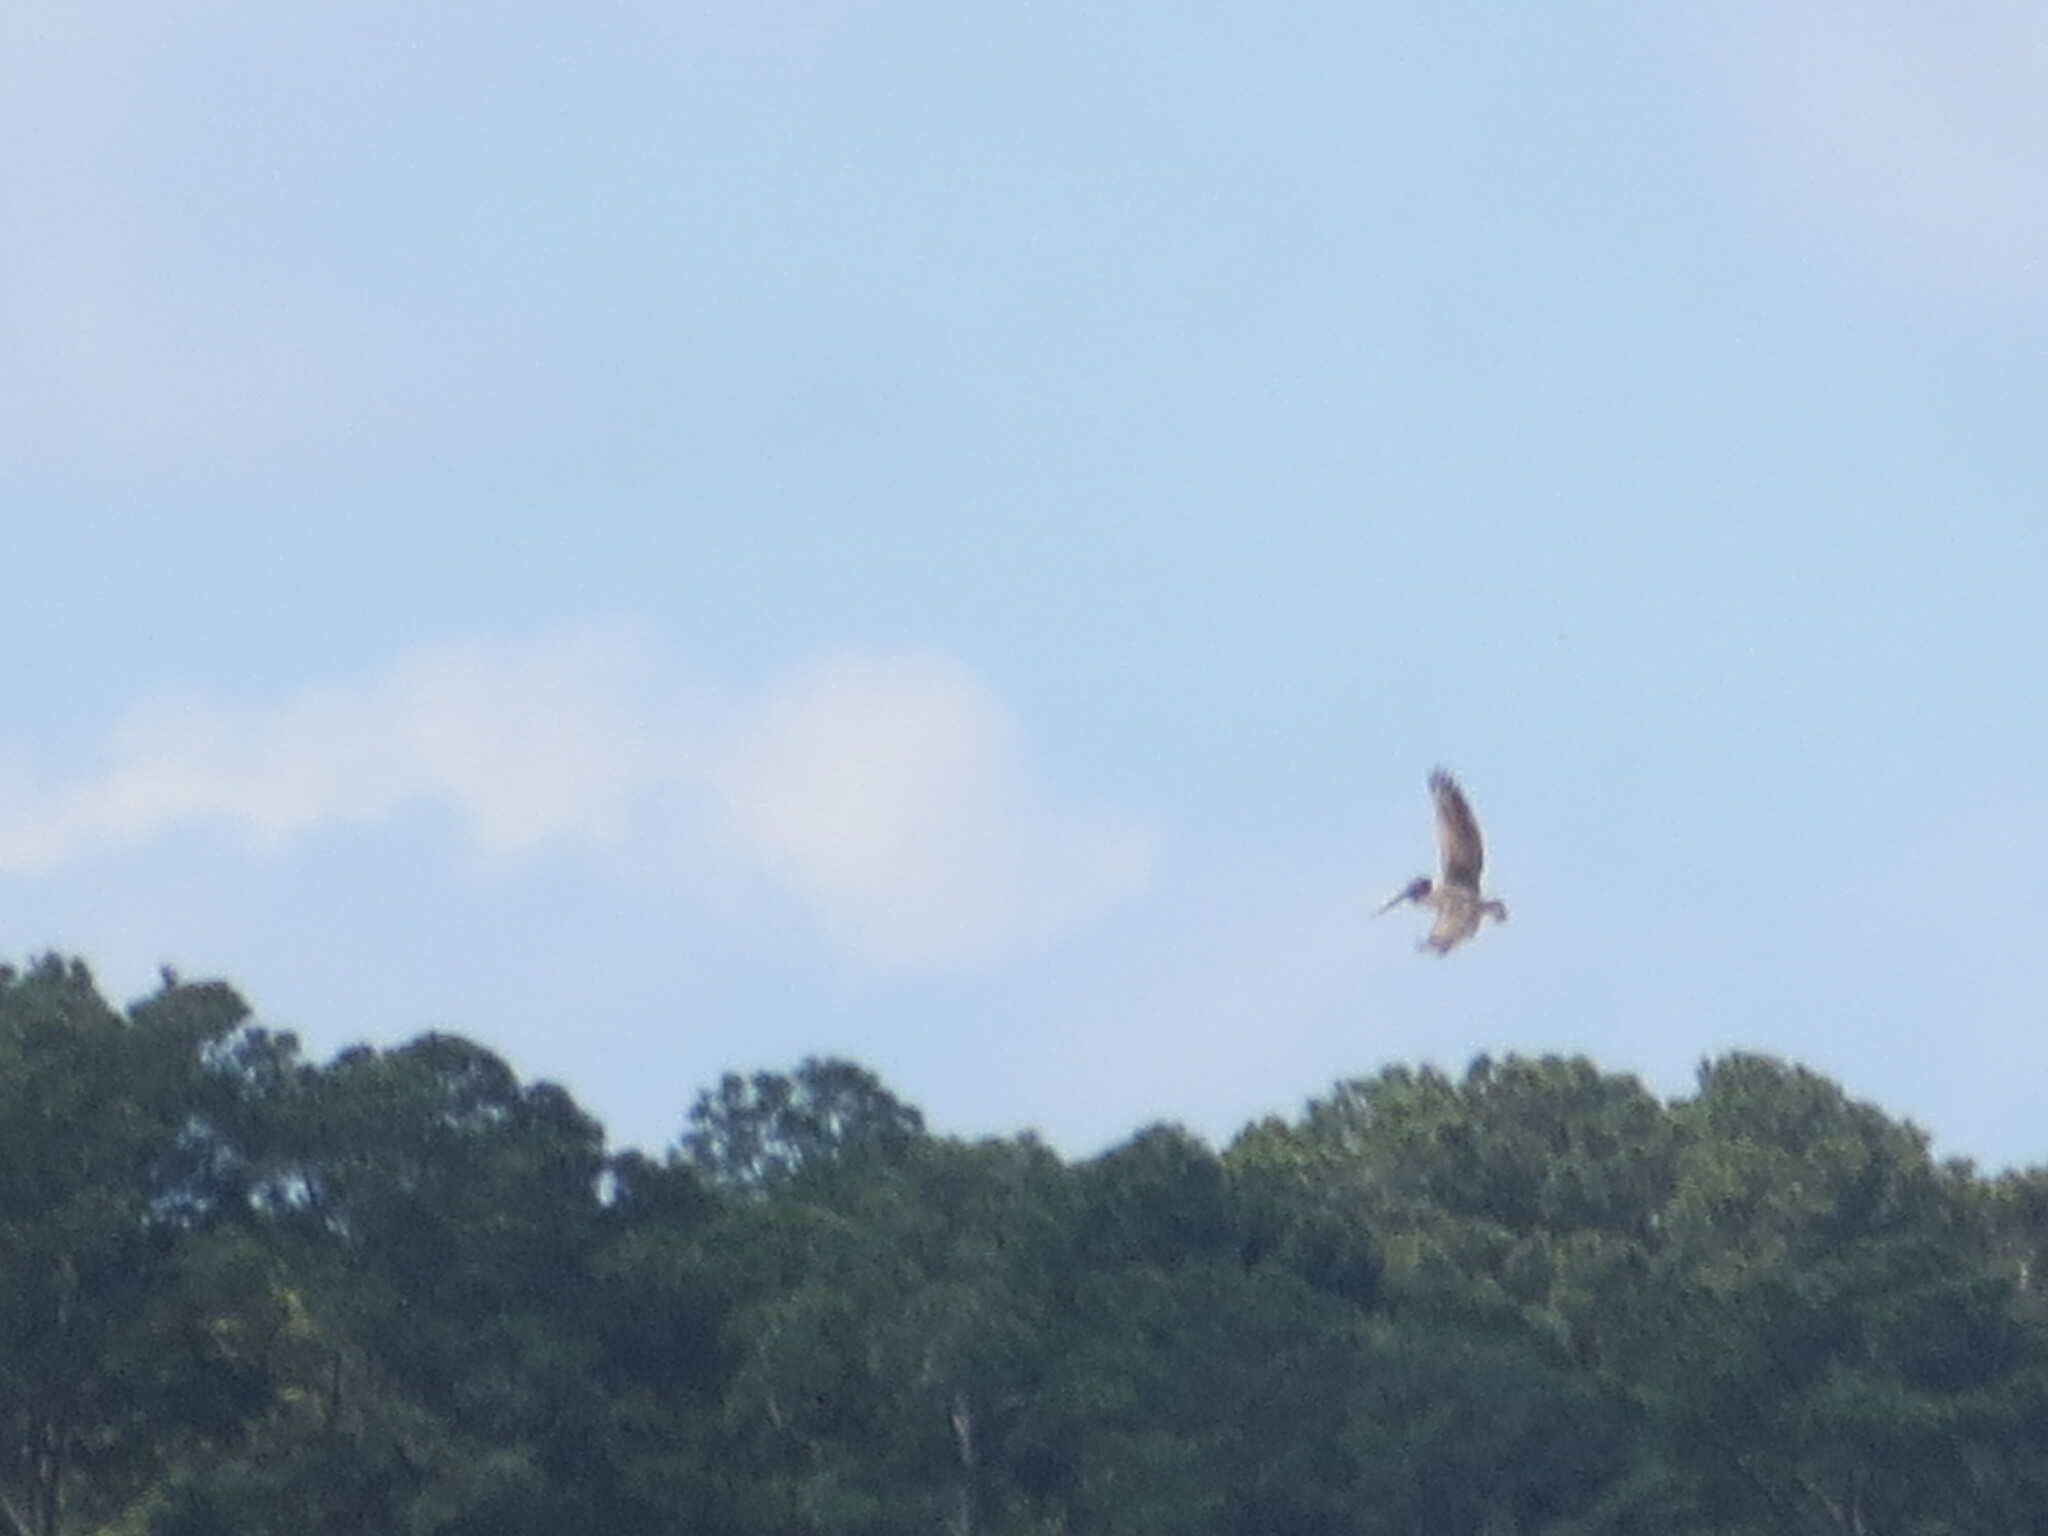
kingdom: Animalia
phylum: Chordata
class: Aves
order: Pelecaniformes
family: Pelecanidae
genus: Pelecanus
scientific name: Pelecanus occidentalis
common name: Brown pelican
